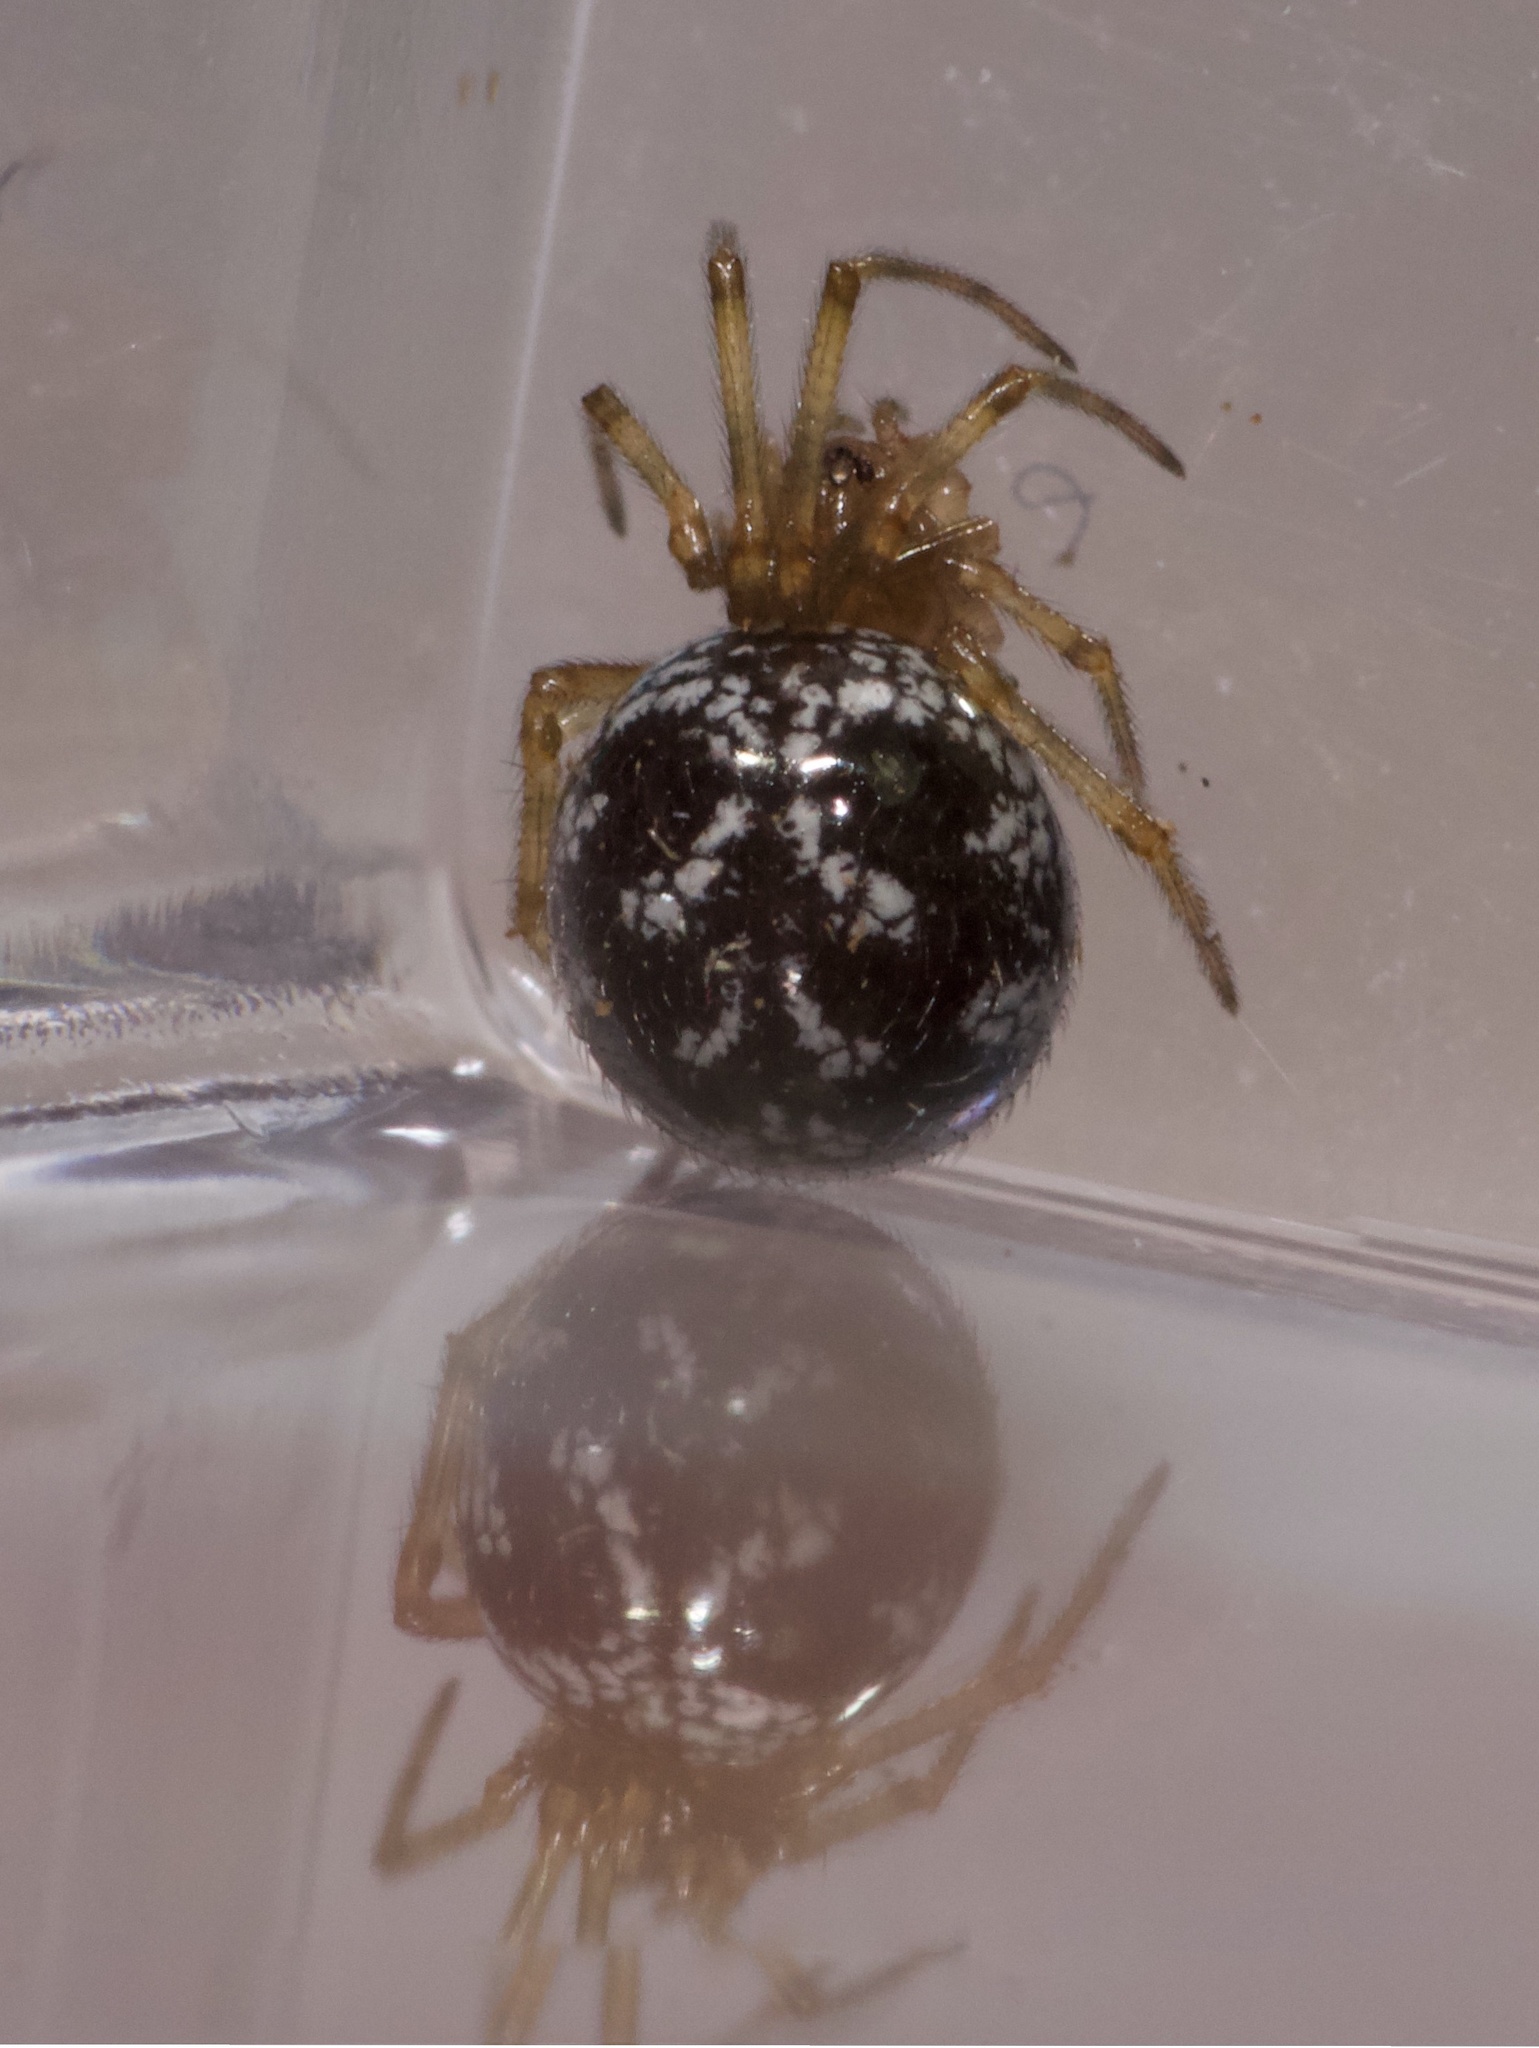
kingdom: Animalia
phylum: Arthropoda
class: Arachnida
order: Araneae
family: Theridiidae
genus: Steatoda
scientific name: Steatoda triangulosa
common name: Triangulate bud spider
